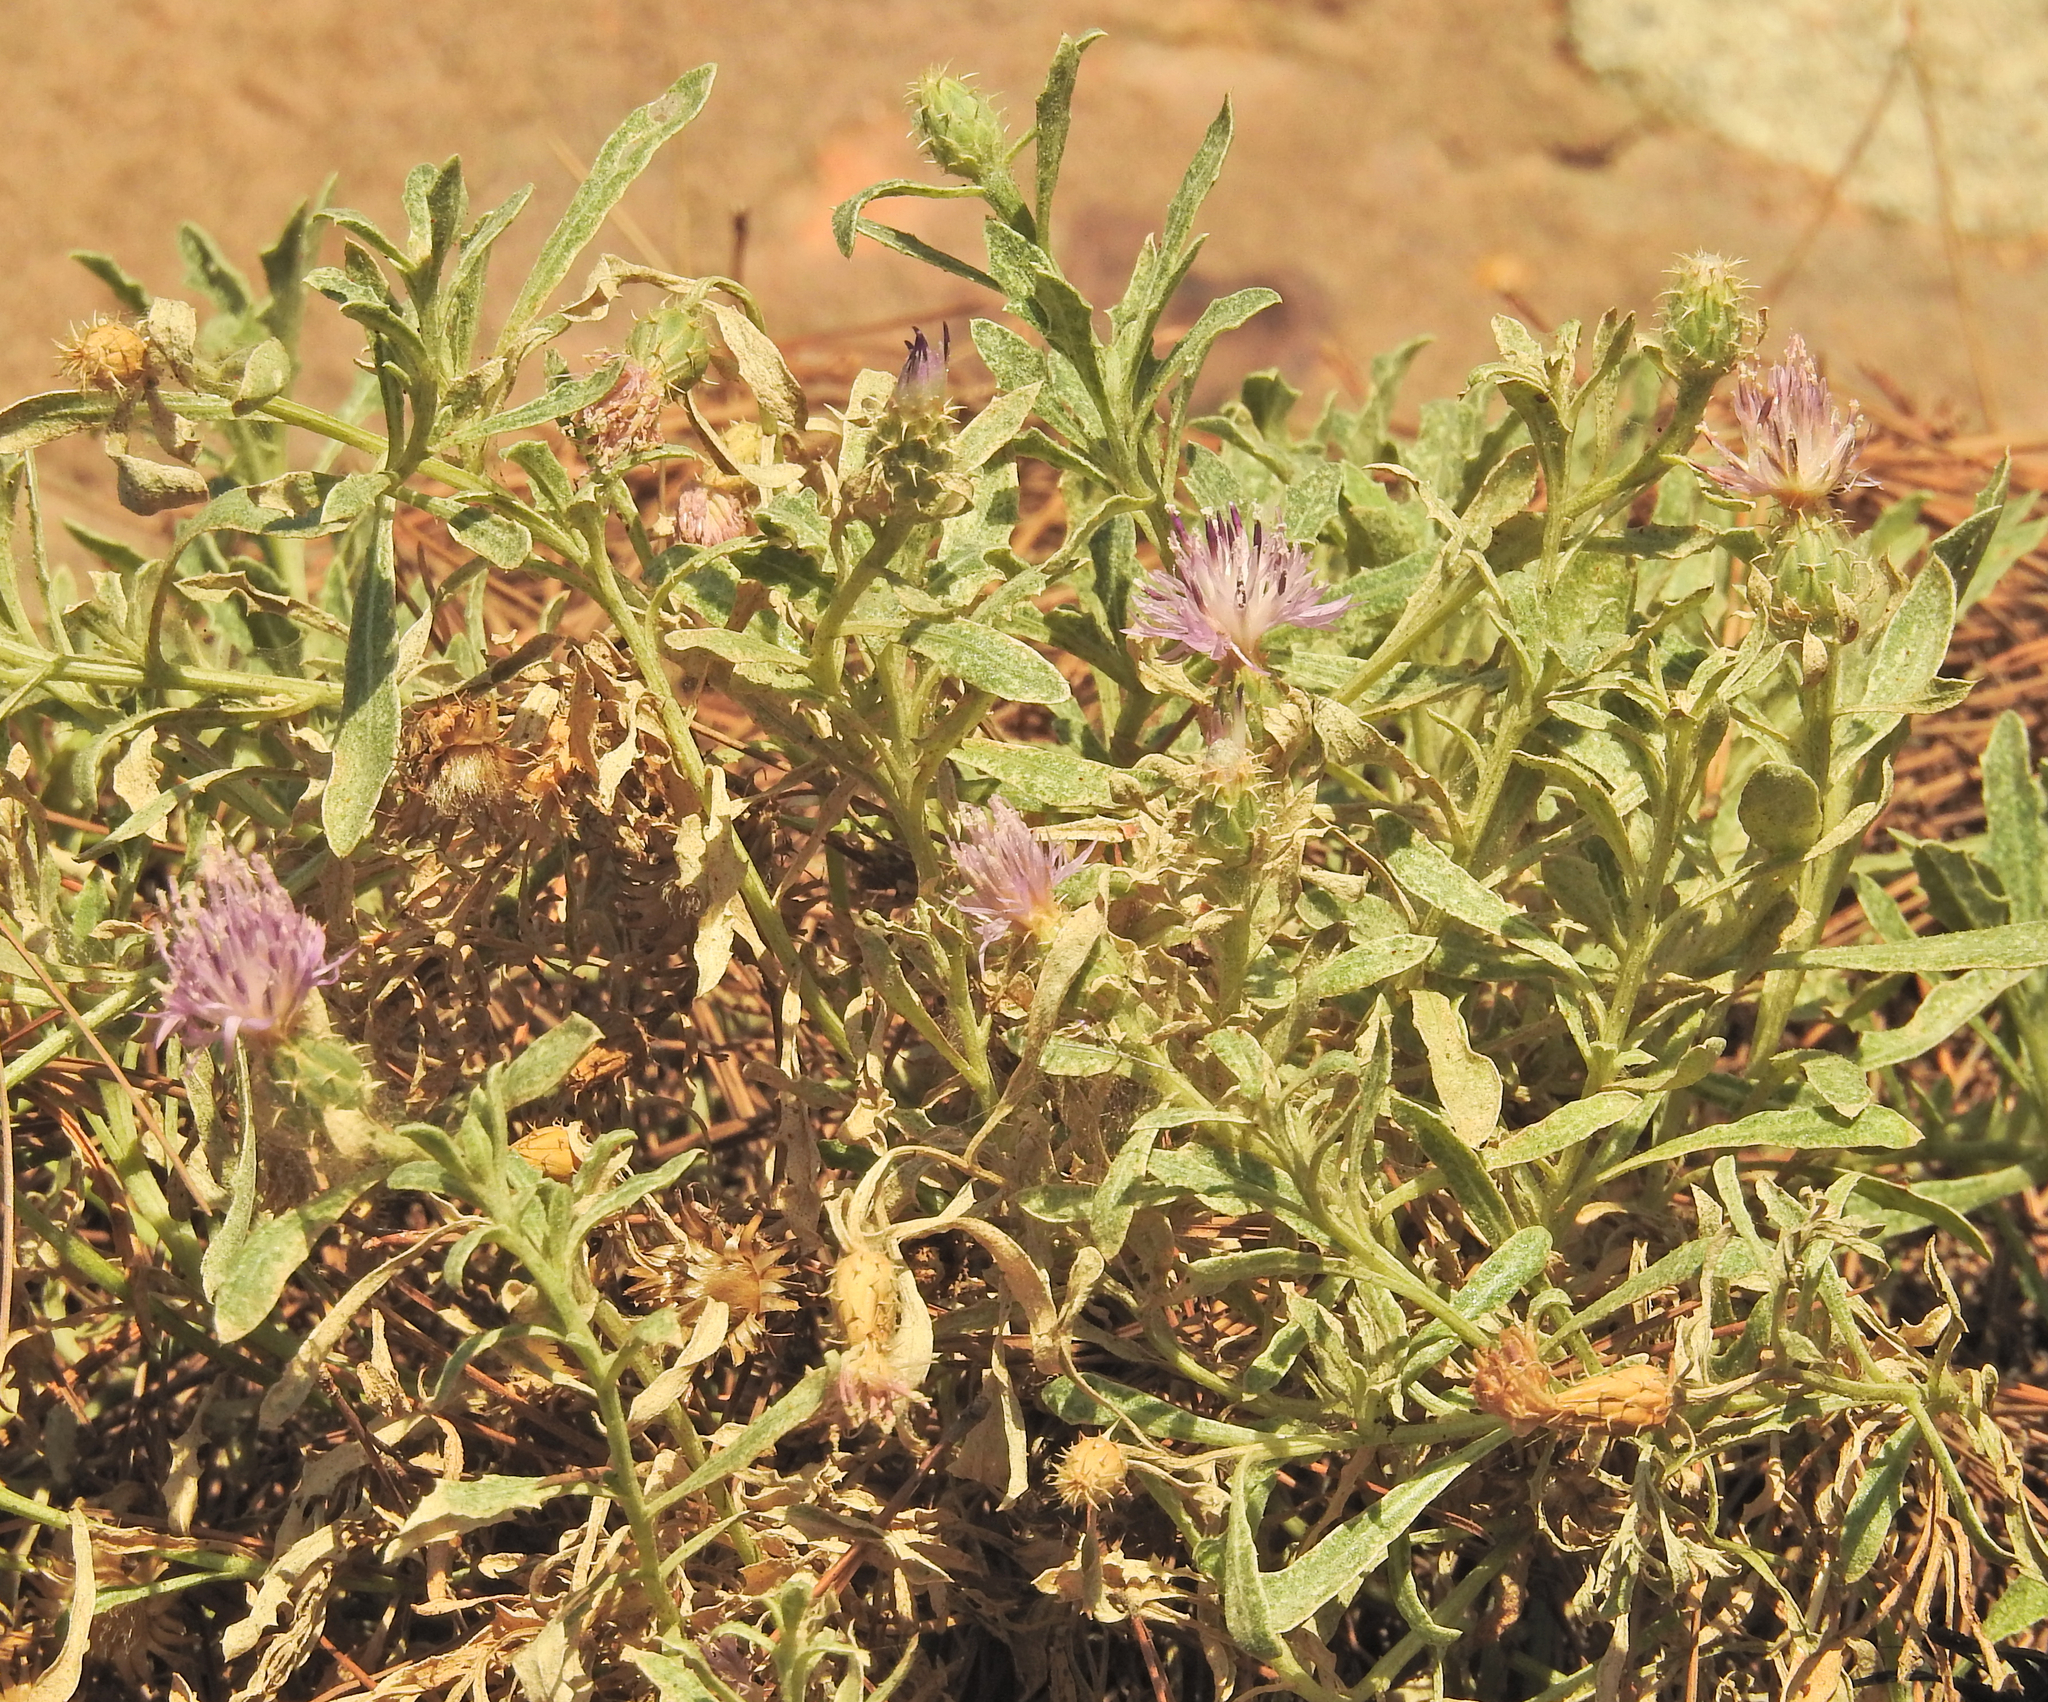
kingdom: Plantae
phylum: Tracheophyta
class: Magnoliopsida
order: Asterales
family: Asteraceae
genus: Centaurea
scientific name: Centaurea aspera
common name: Rough star-thistle
